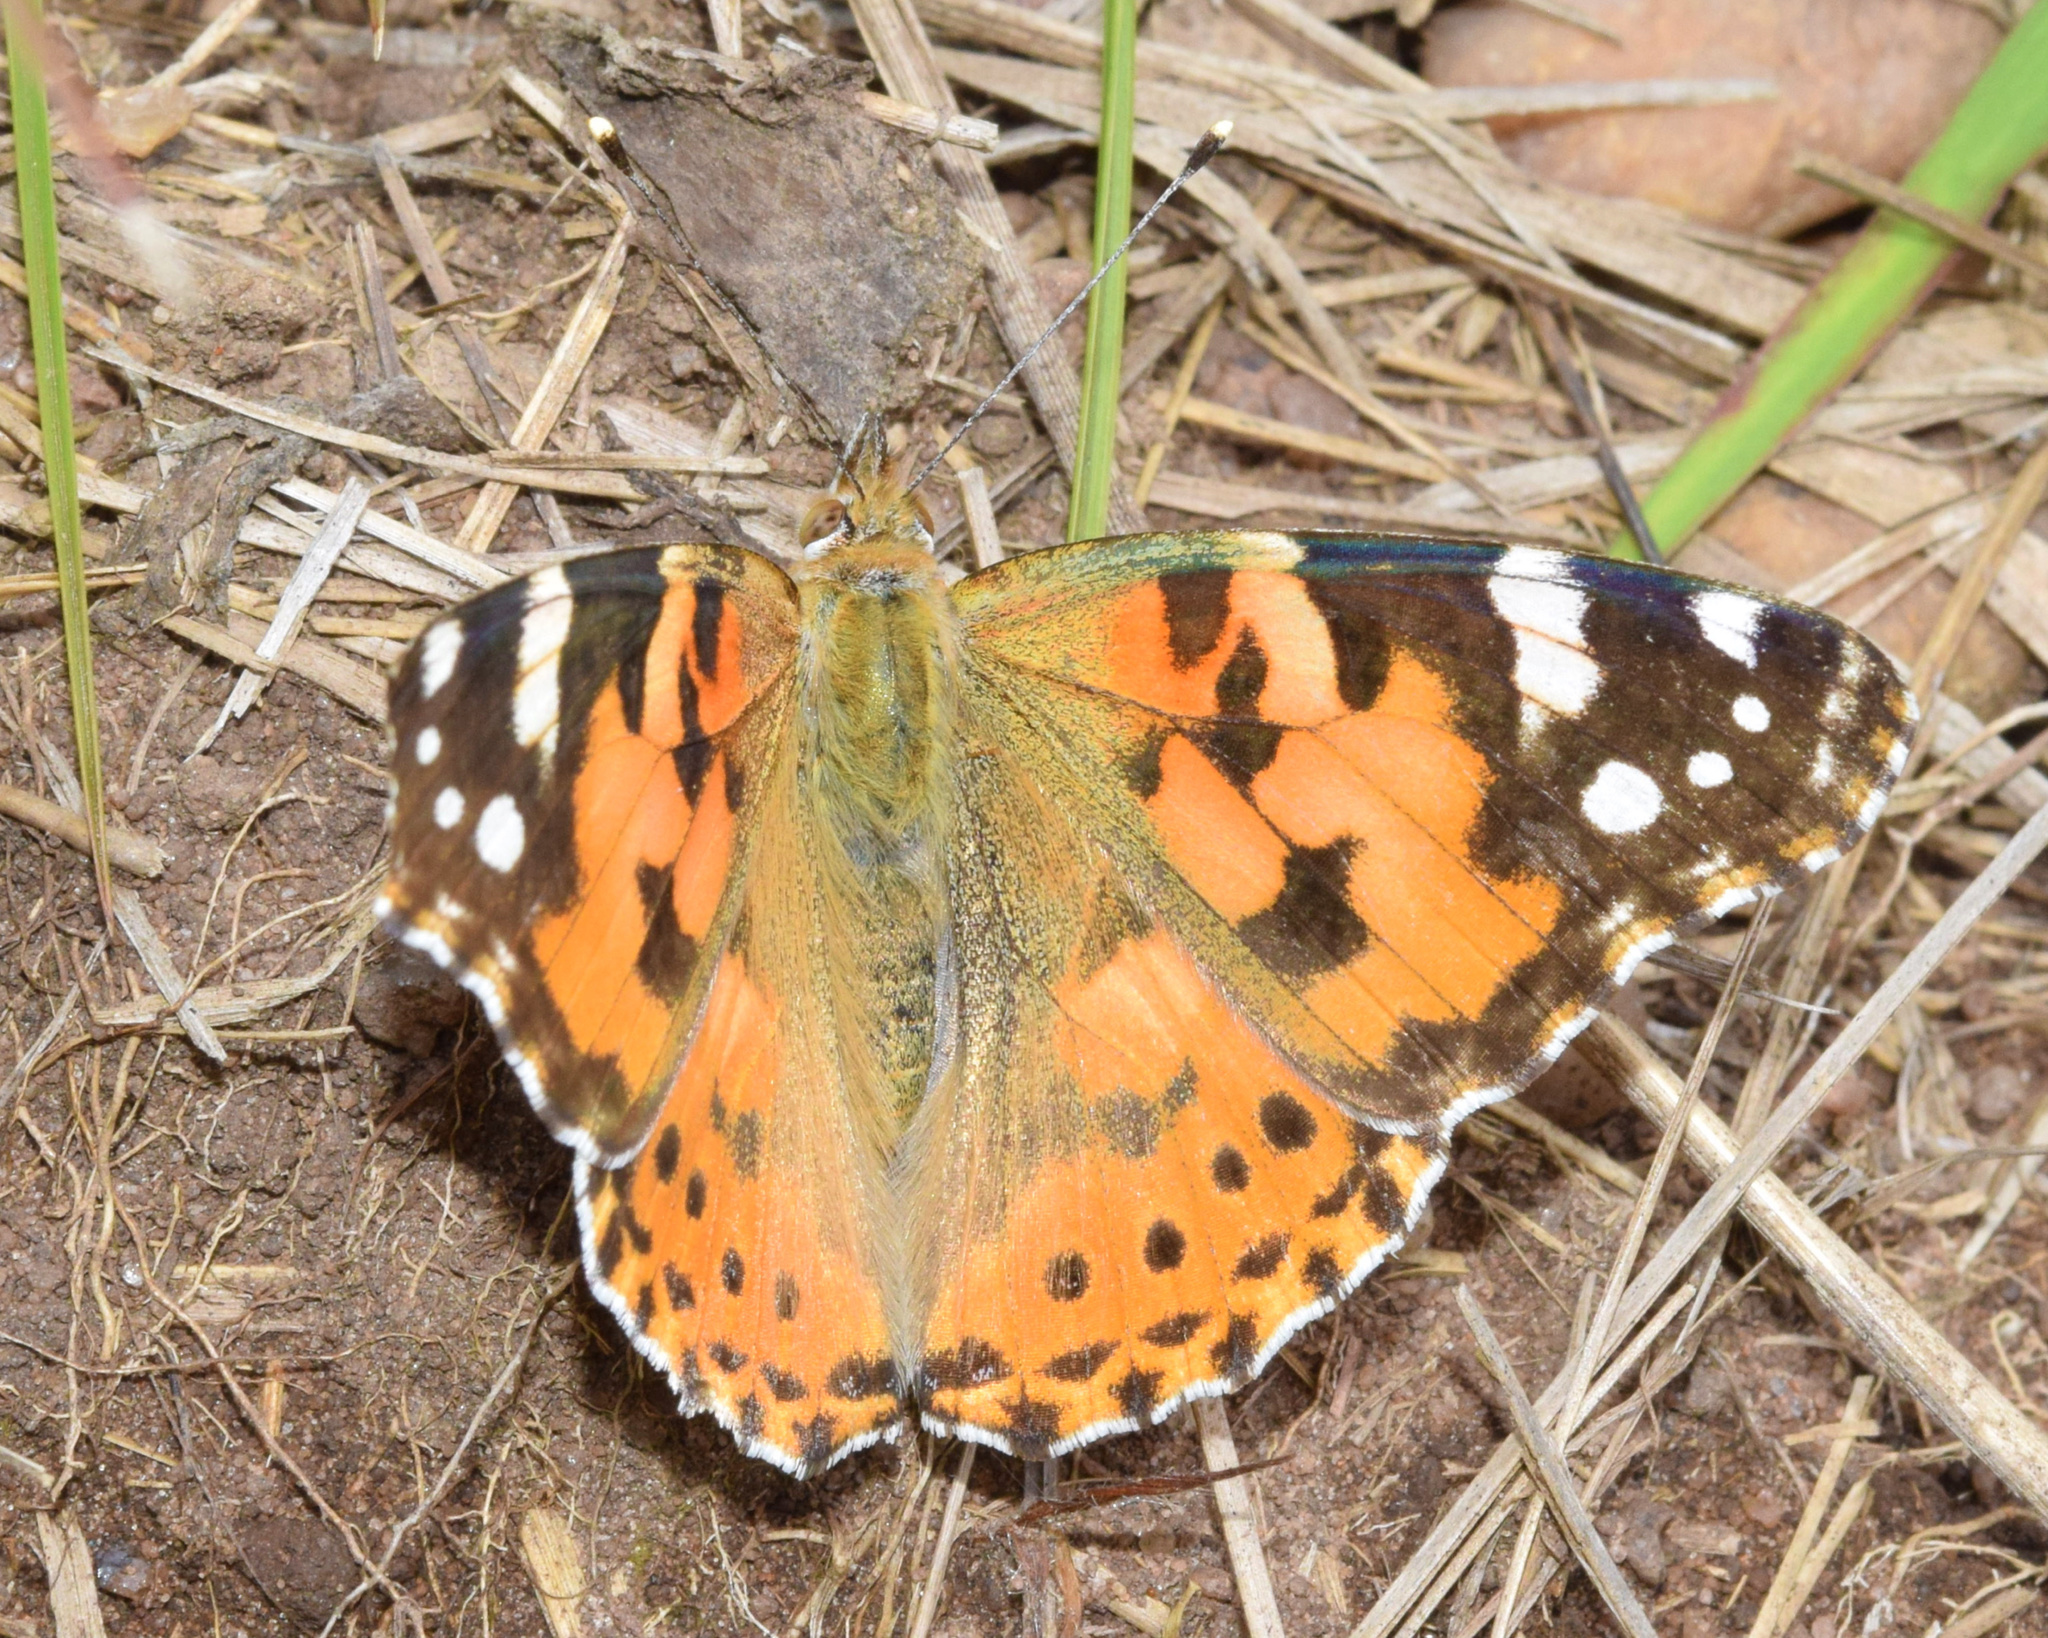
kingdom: Animalia
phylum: Arthropoda
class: Insecta
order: Lepidoptera
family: Nymphalidae
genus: Vanessa
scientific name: Vanessa cardui
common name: Painted lady
